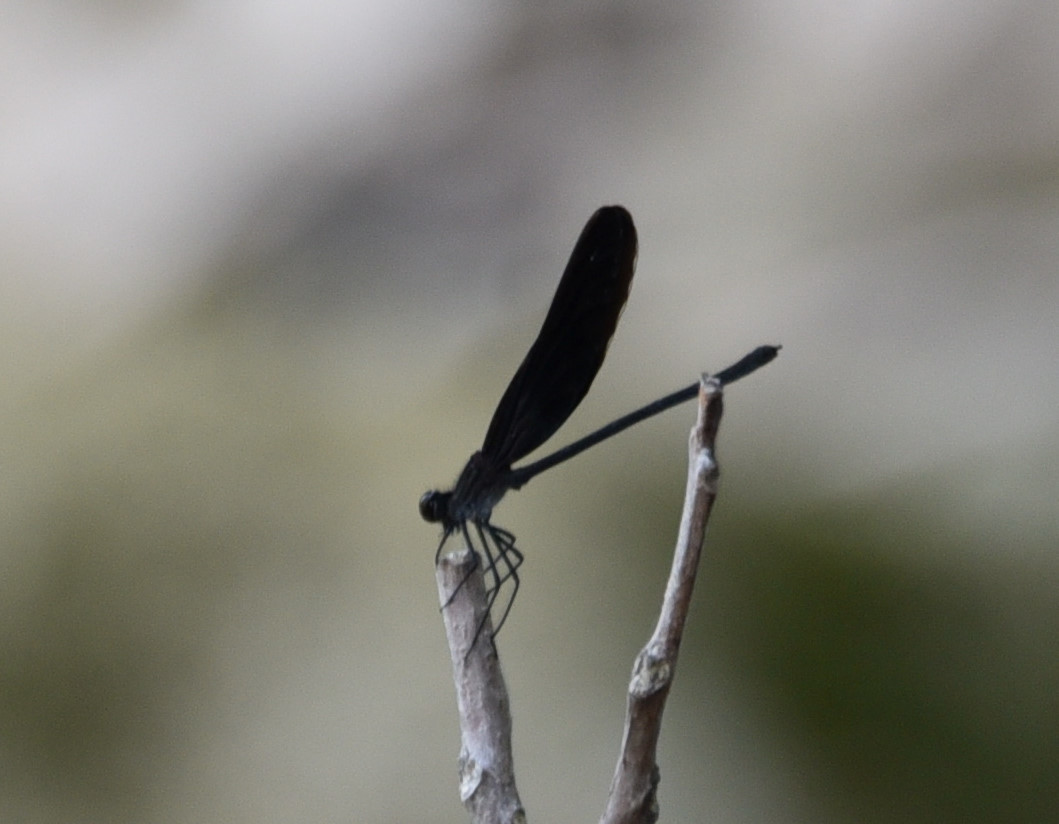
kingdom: Animalia
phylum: Arthropoda
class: Insecta
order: Odonata
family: Calopterygidae
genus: Hetaerina
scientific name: Hetaerina titia
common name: Smoky rubyspot
